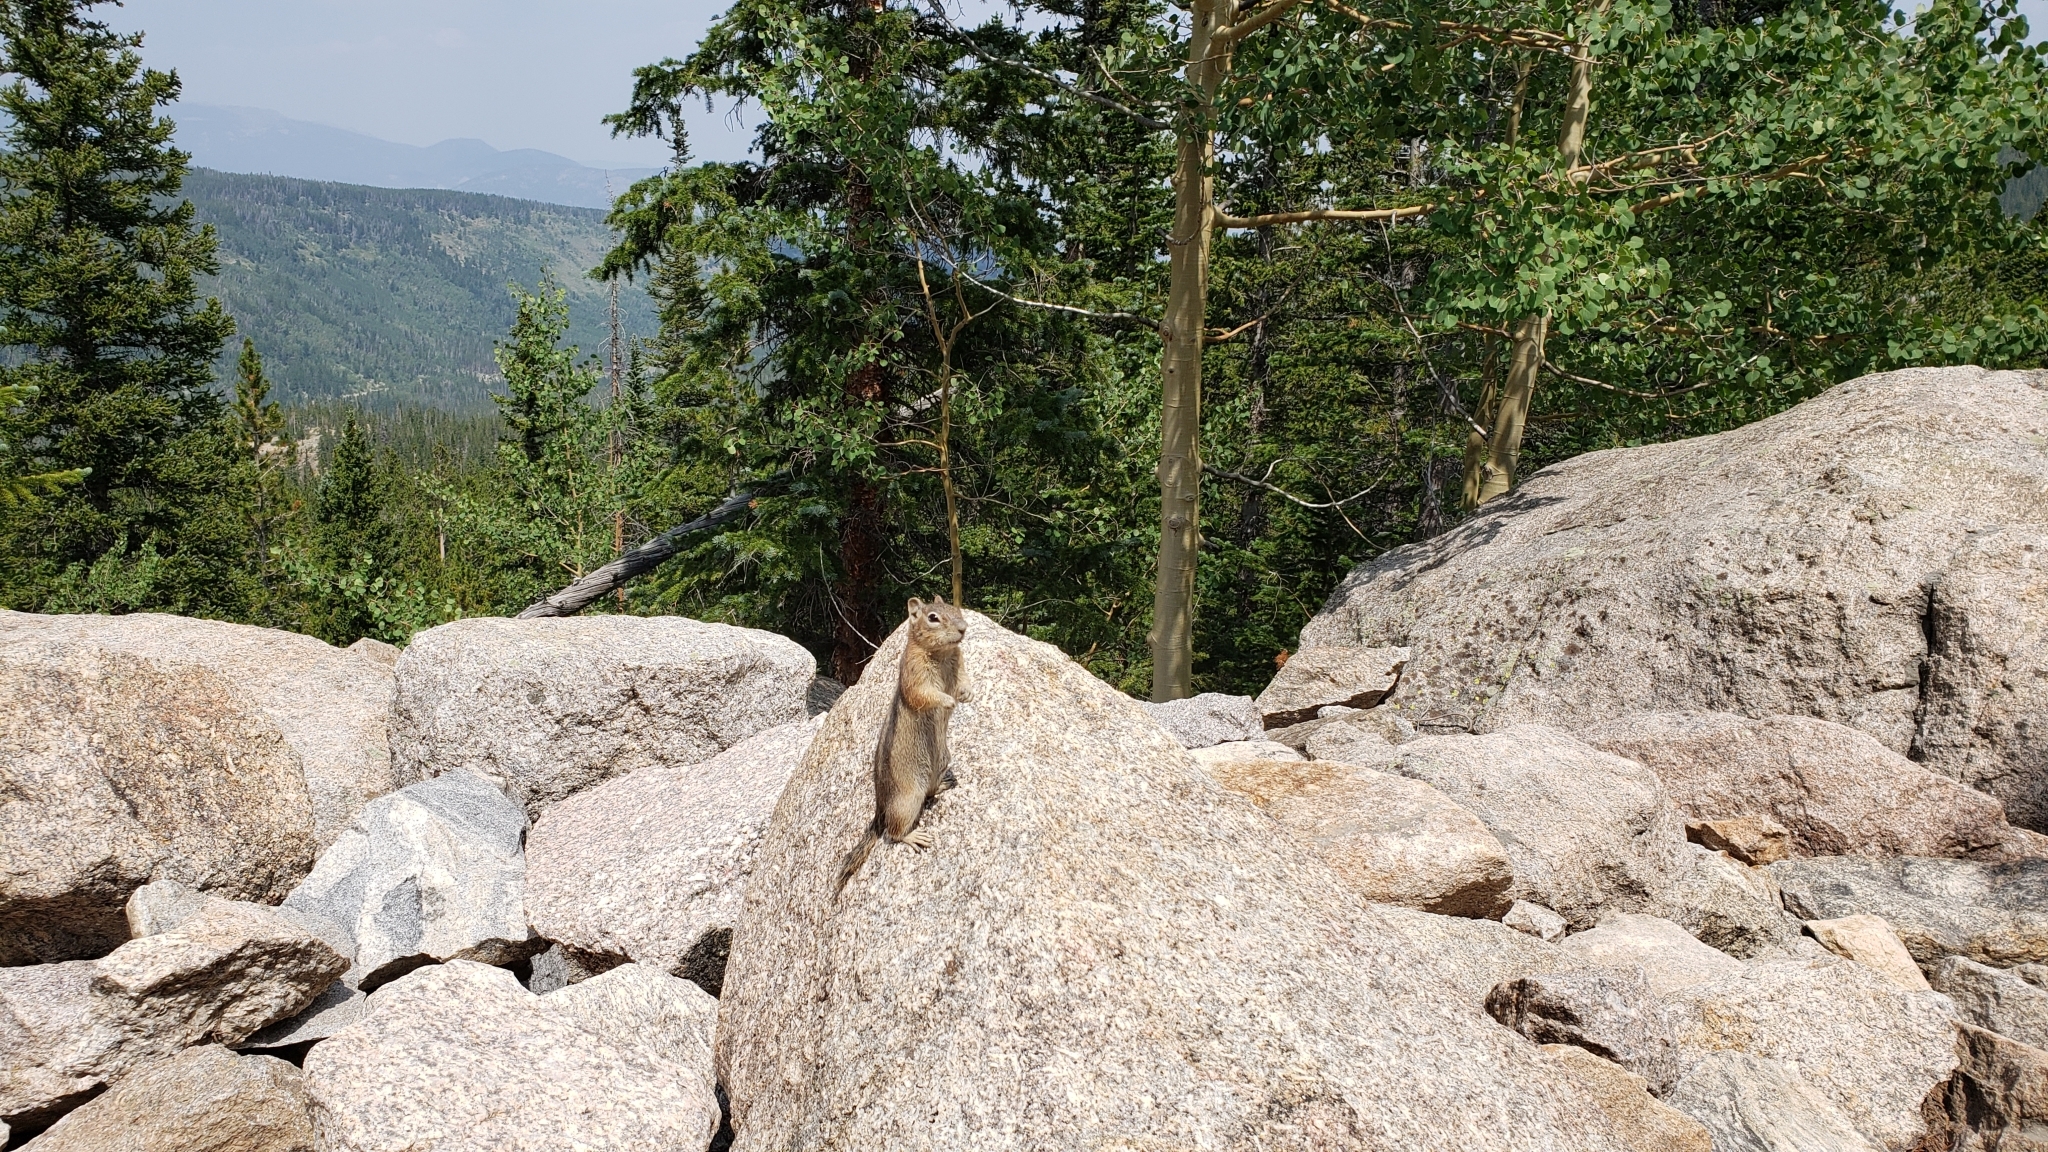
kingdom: Animalia
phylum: Chordata
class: Mammalia
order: Rodentia
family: Sciuridae
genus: Callospermophilus
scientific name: Callospermophilus lateralis
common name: Golden-mantled ground squirrel
